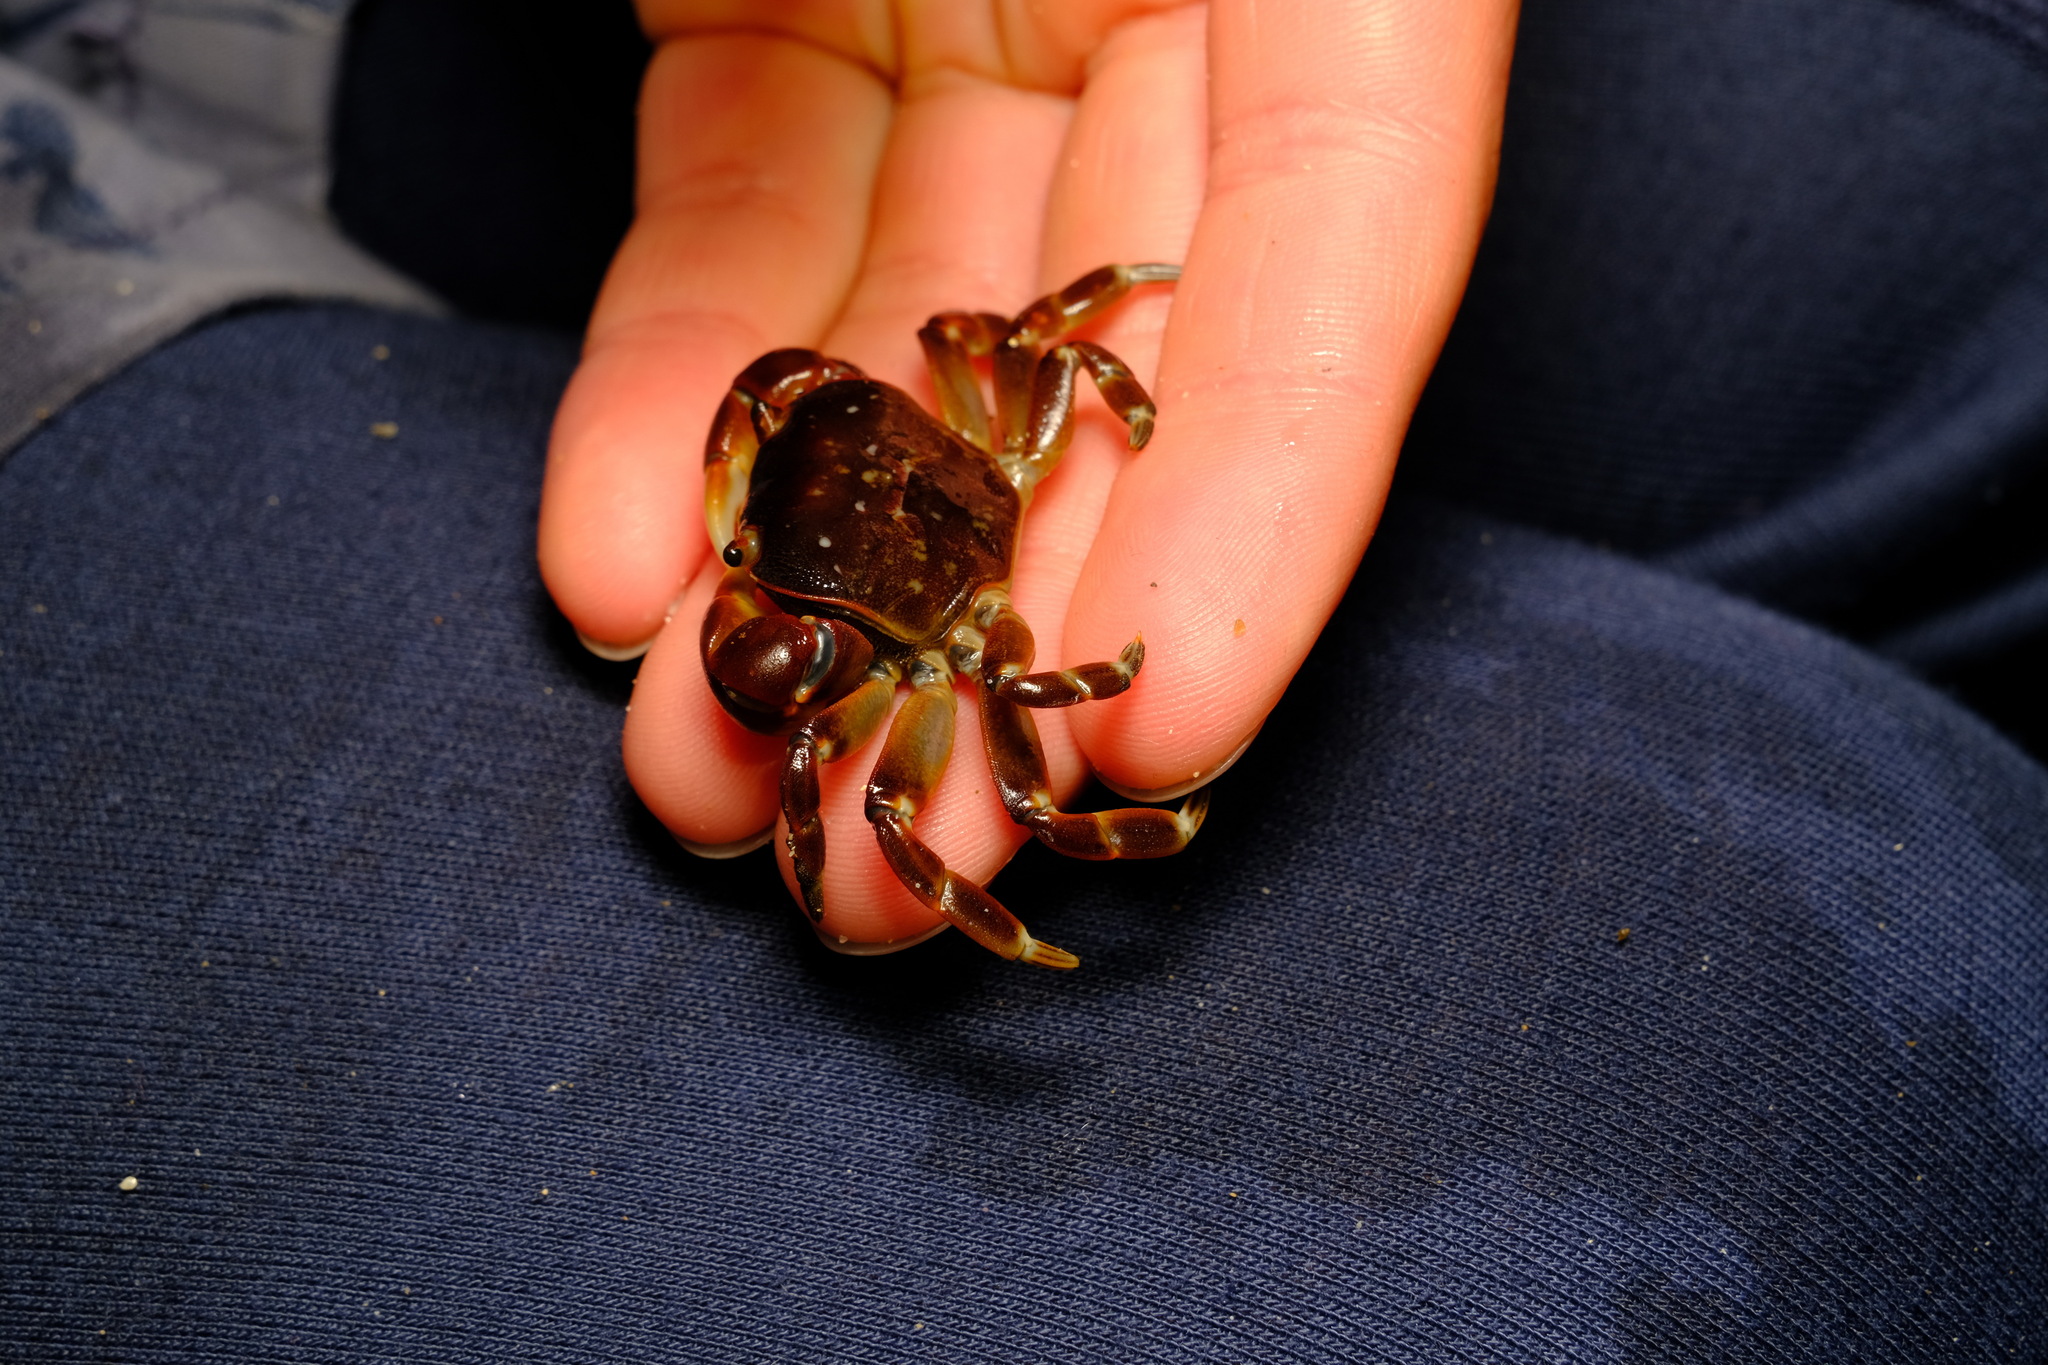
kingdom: Animalia
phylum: Arthropoda
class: Malacostraca
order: Decapoda
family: Varunidae
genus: Cyclograpsus
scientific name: Cyclograpsus granulosus
